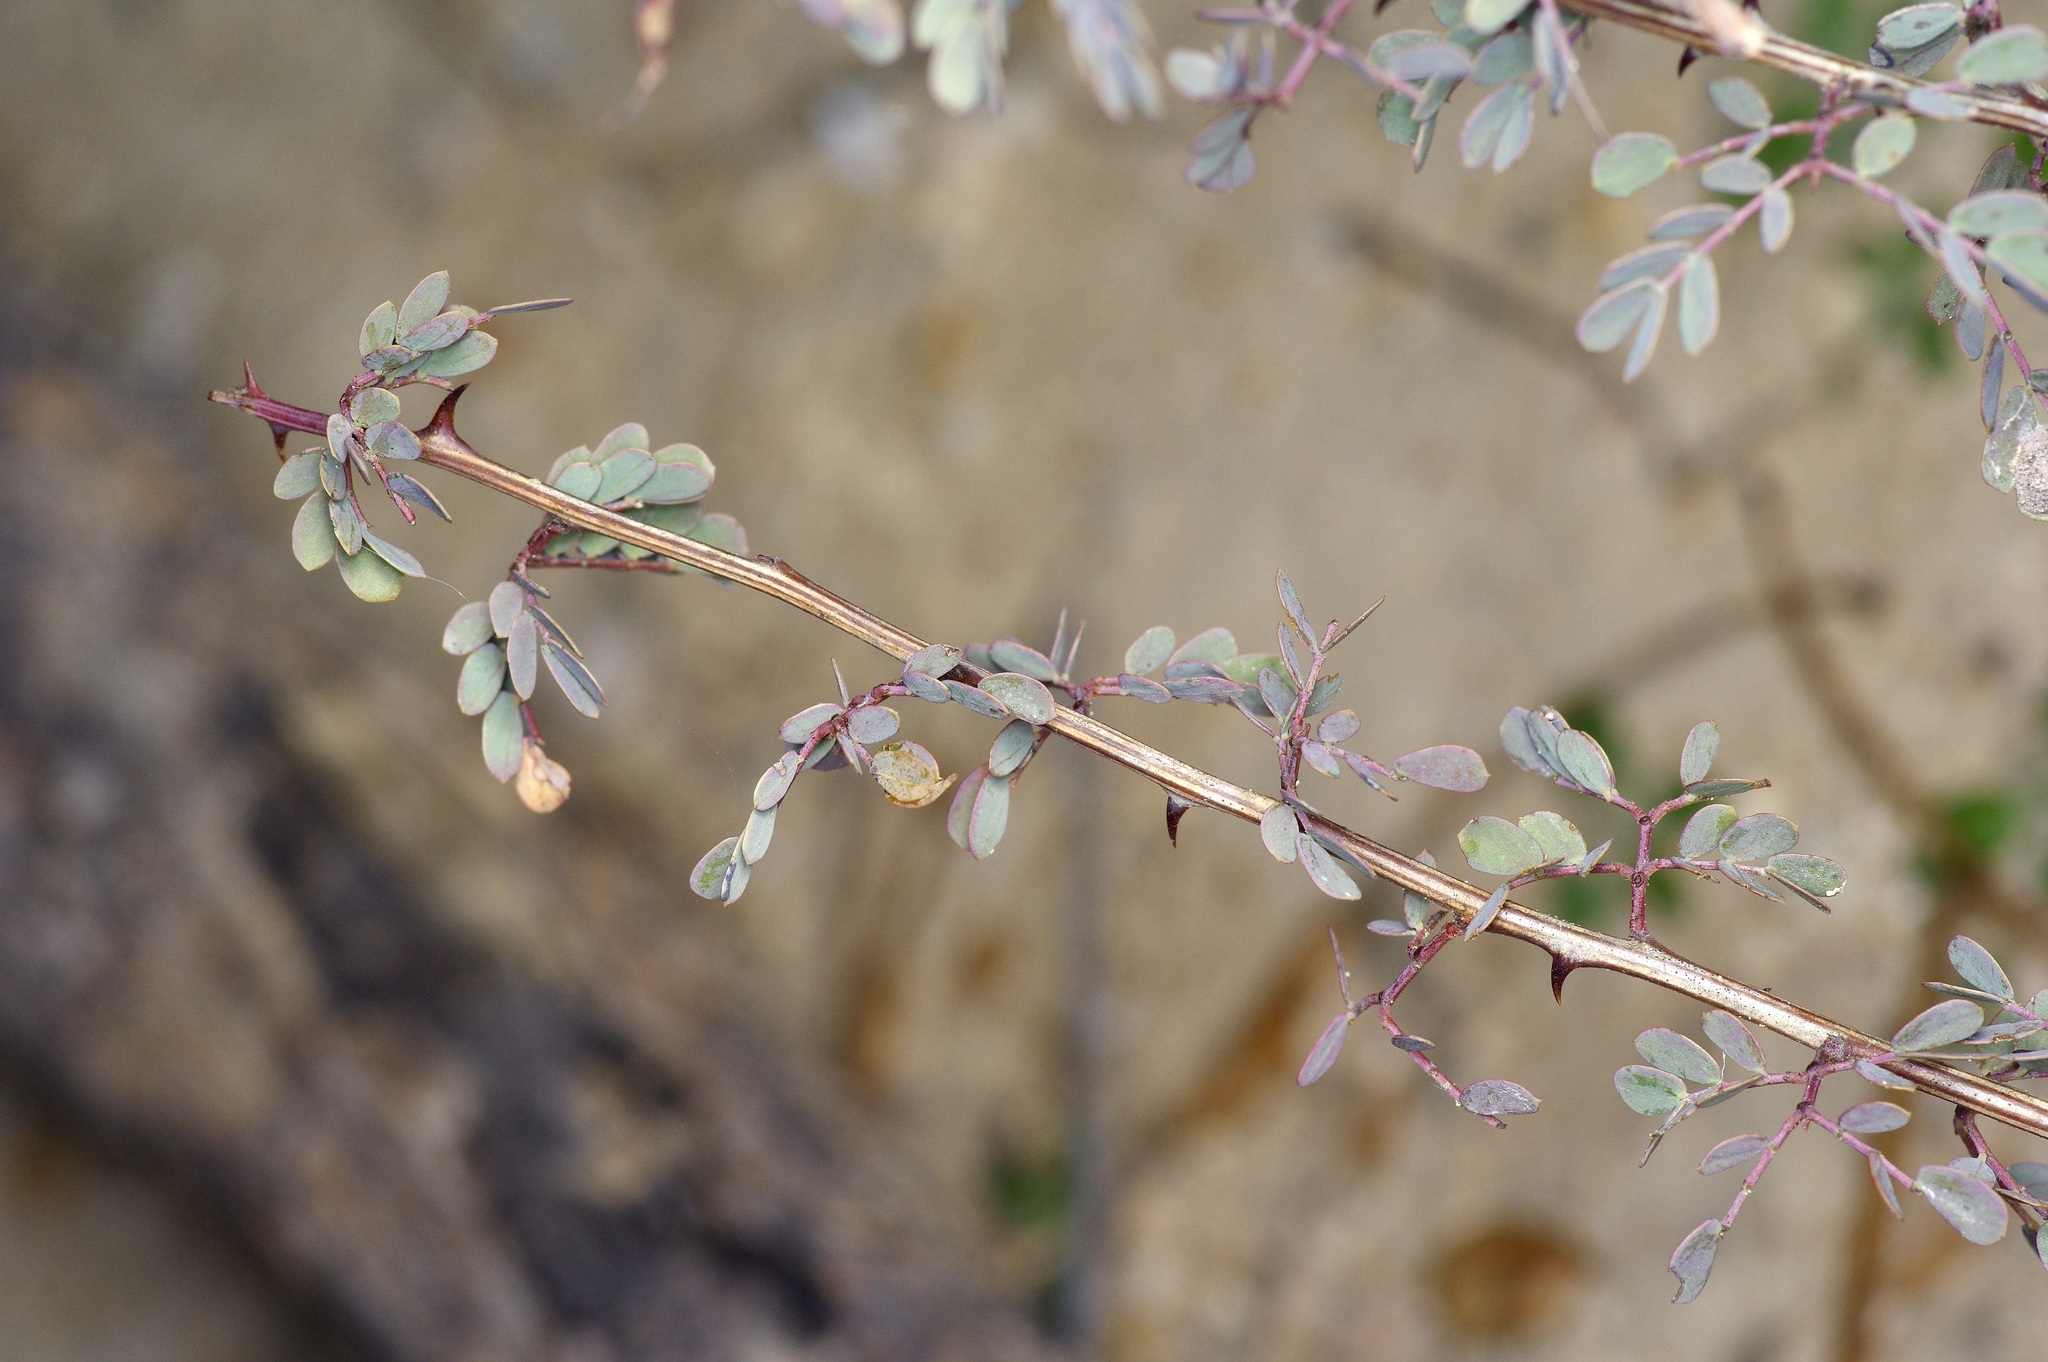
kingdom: Plantae
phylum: Tracheophyta
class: Magnoliopsida
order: Fabales
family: Fabaceae
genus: Senegalia
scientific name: Senegalia greggii
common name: Texas-mimosa
